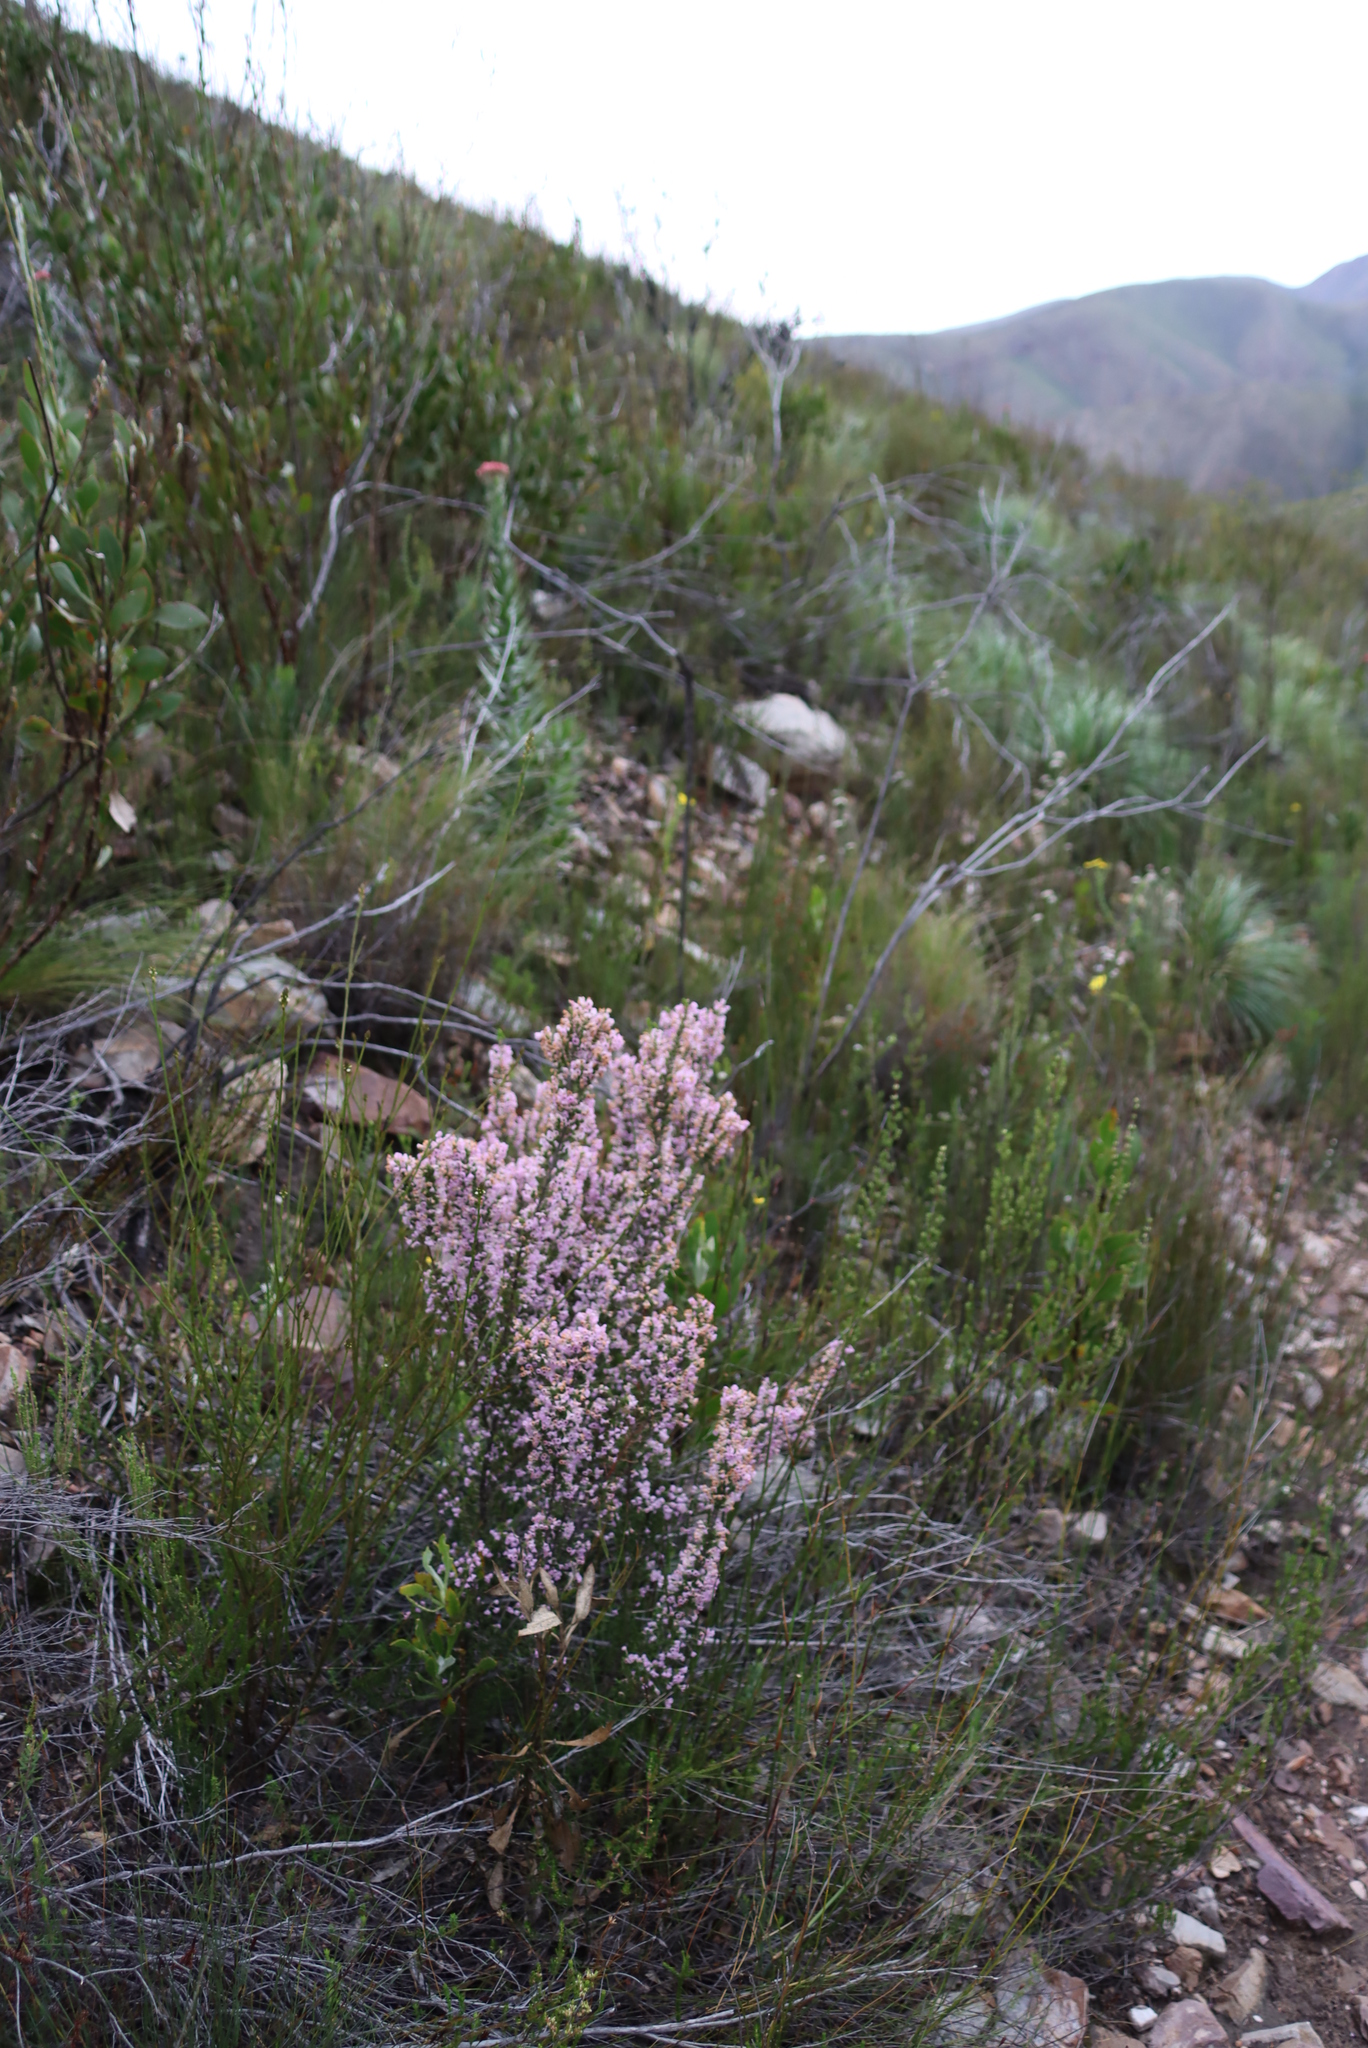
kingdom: Plantae
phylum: Tracheophyta
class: Magnoliopsida
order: Ericales
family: Ericaceae
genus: Erica
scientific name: Erica newdigatei
